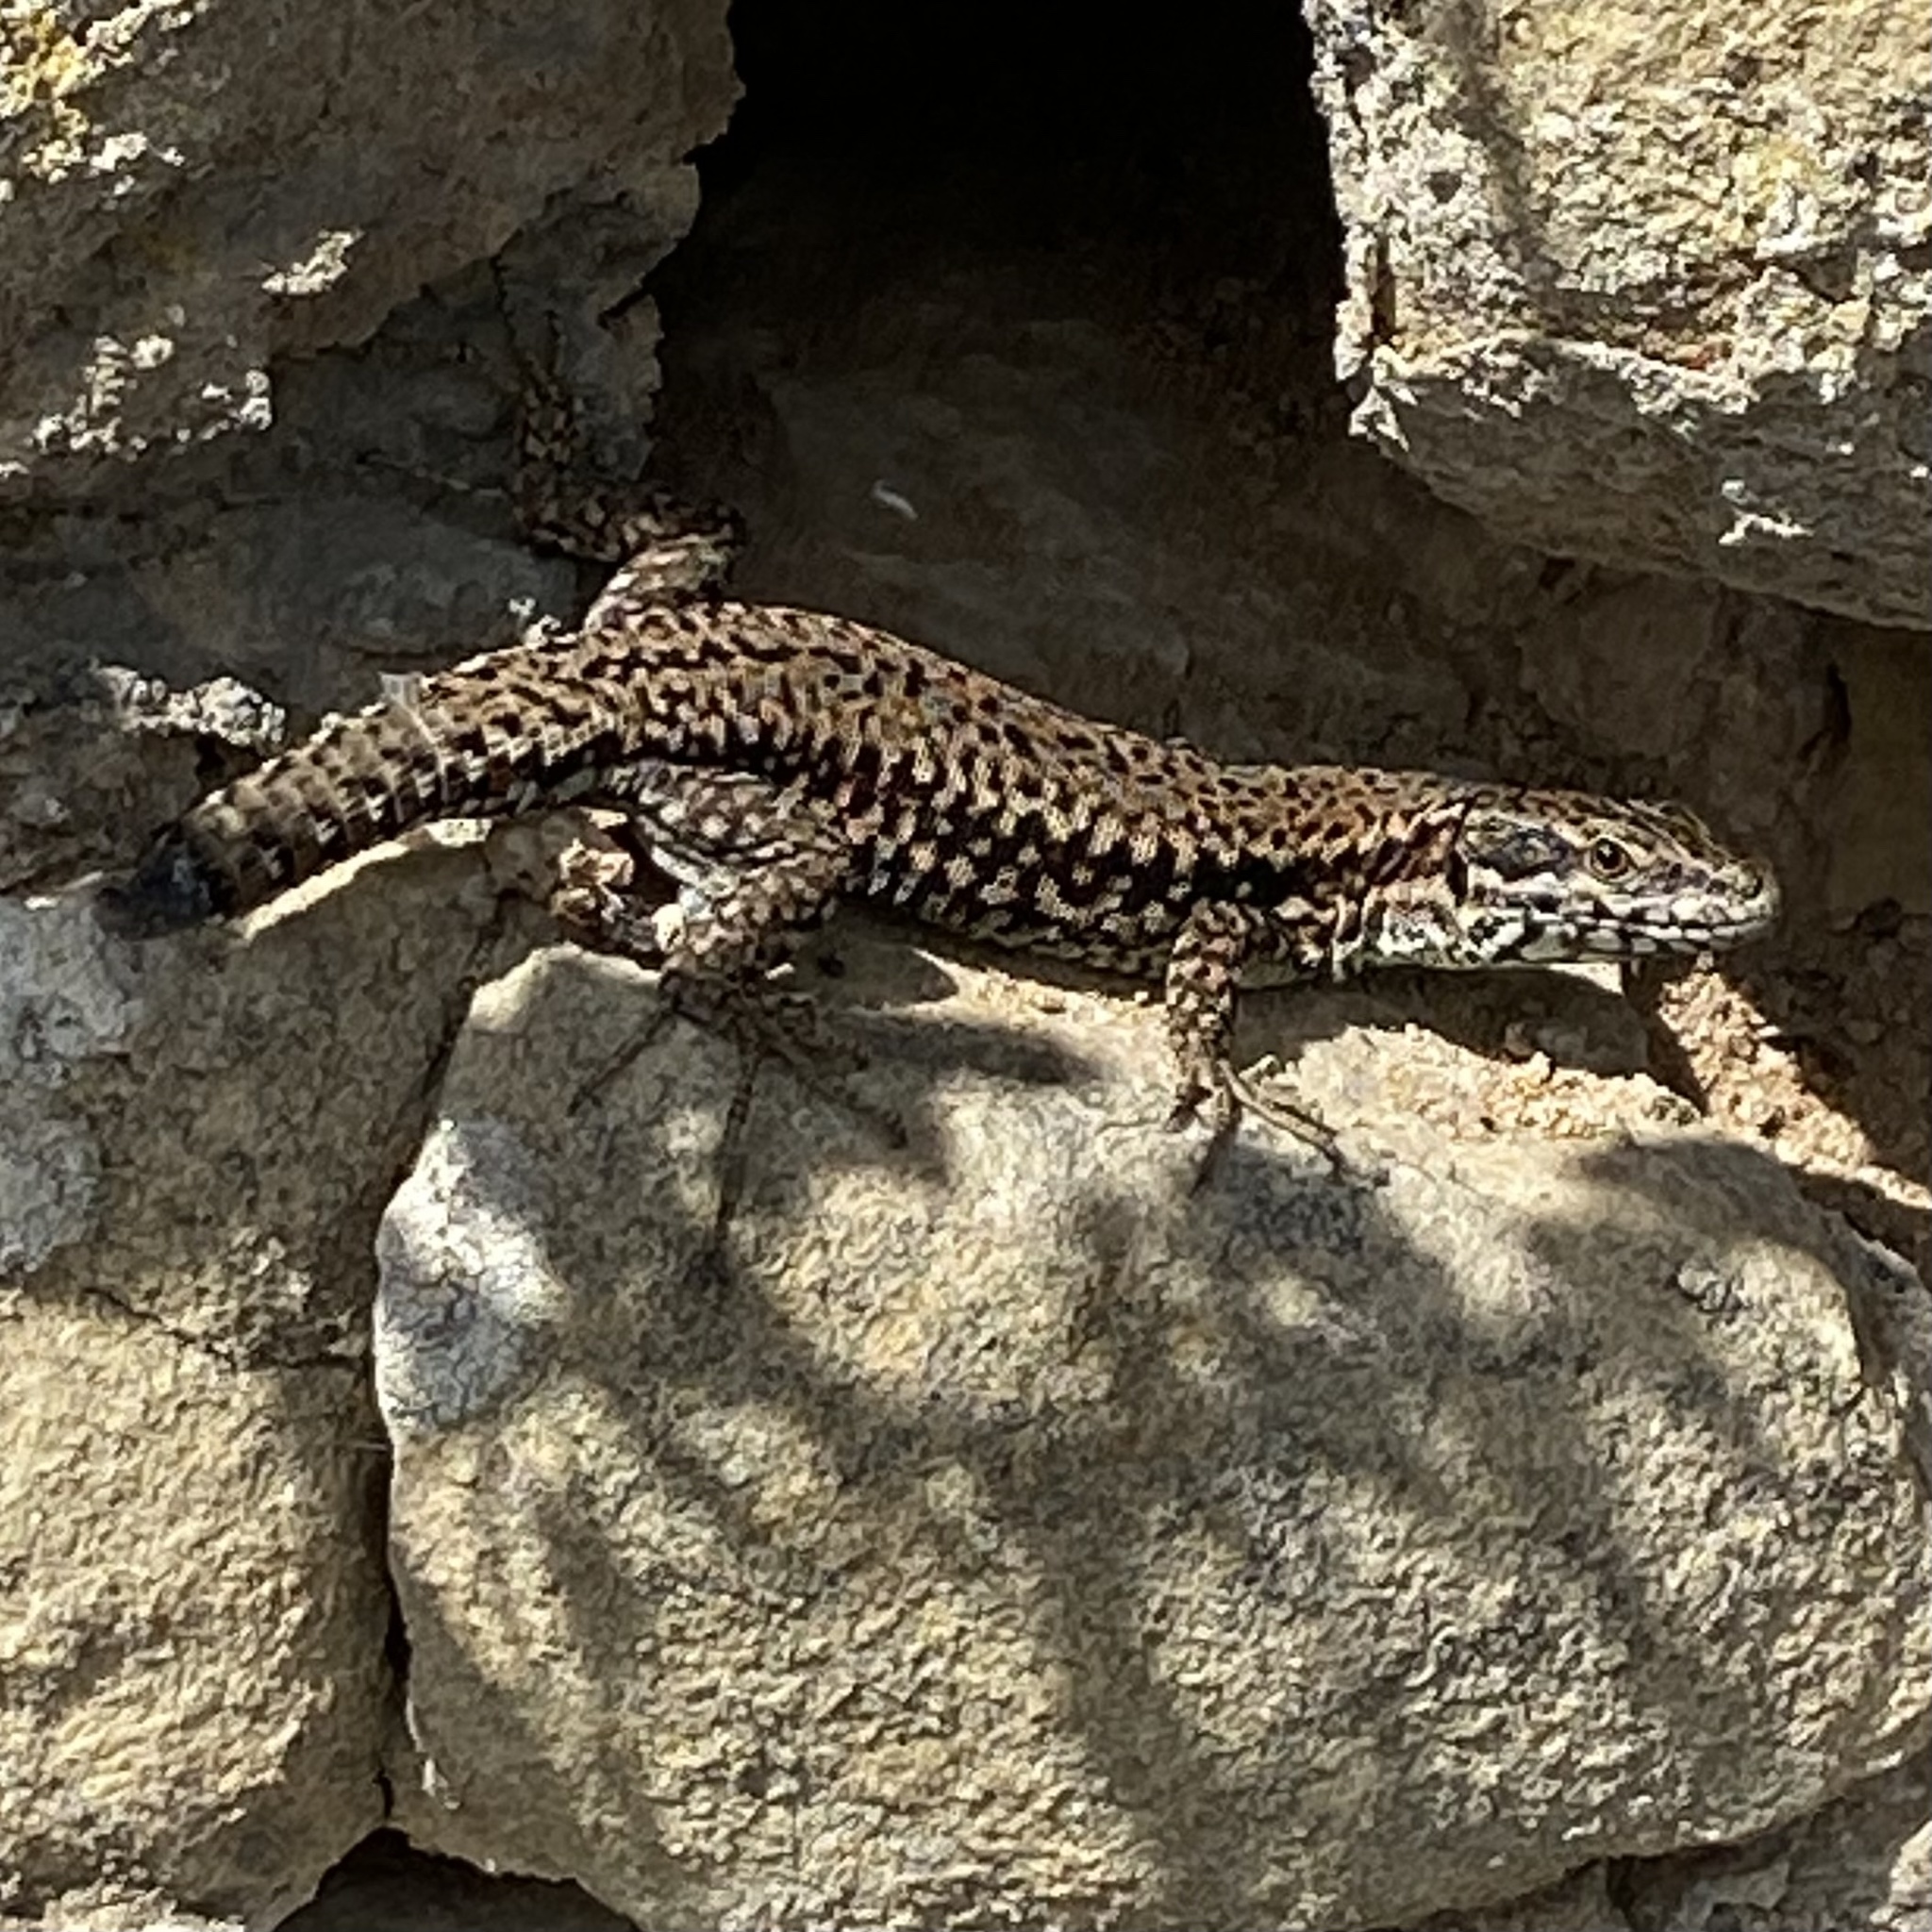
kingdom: Animalia
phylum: Chordata
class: Squamata
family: Lacertidae
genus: Podarcis
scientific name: Podarcis muralis
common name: Common wall lizard
